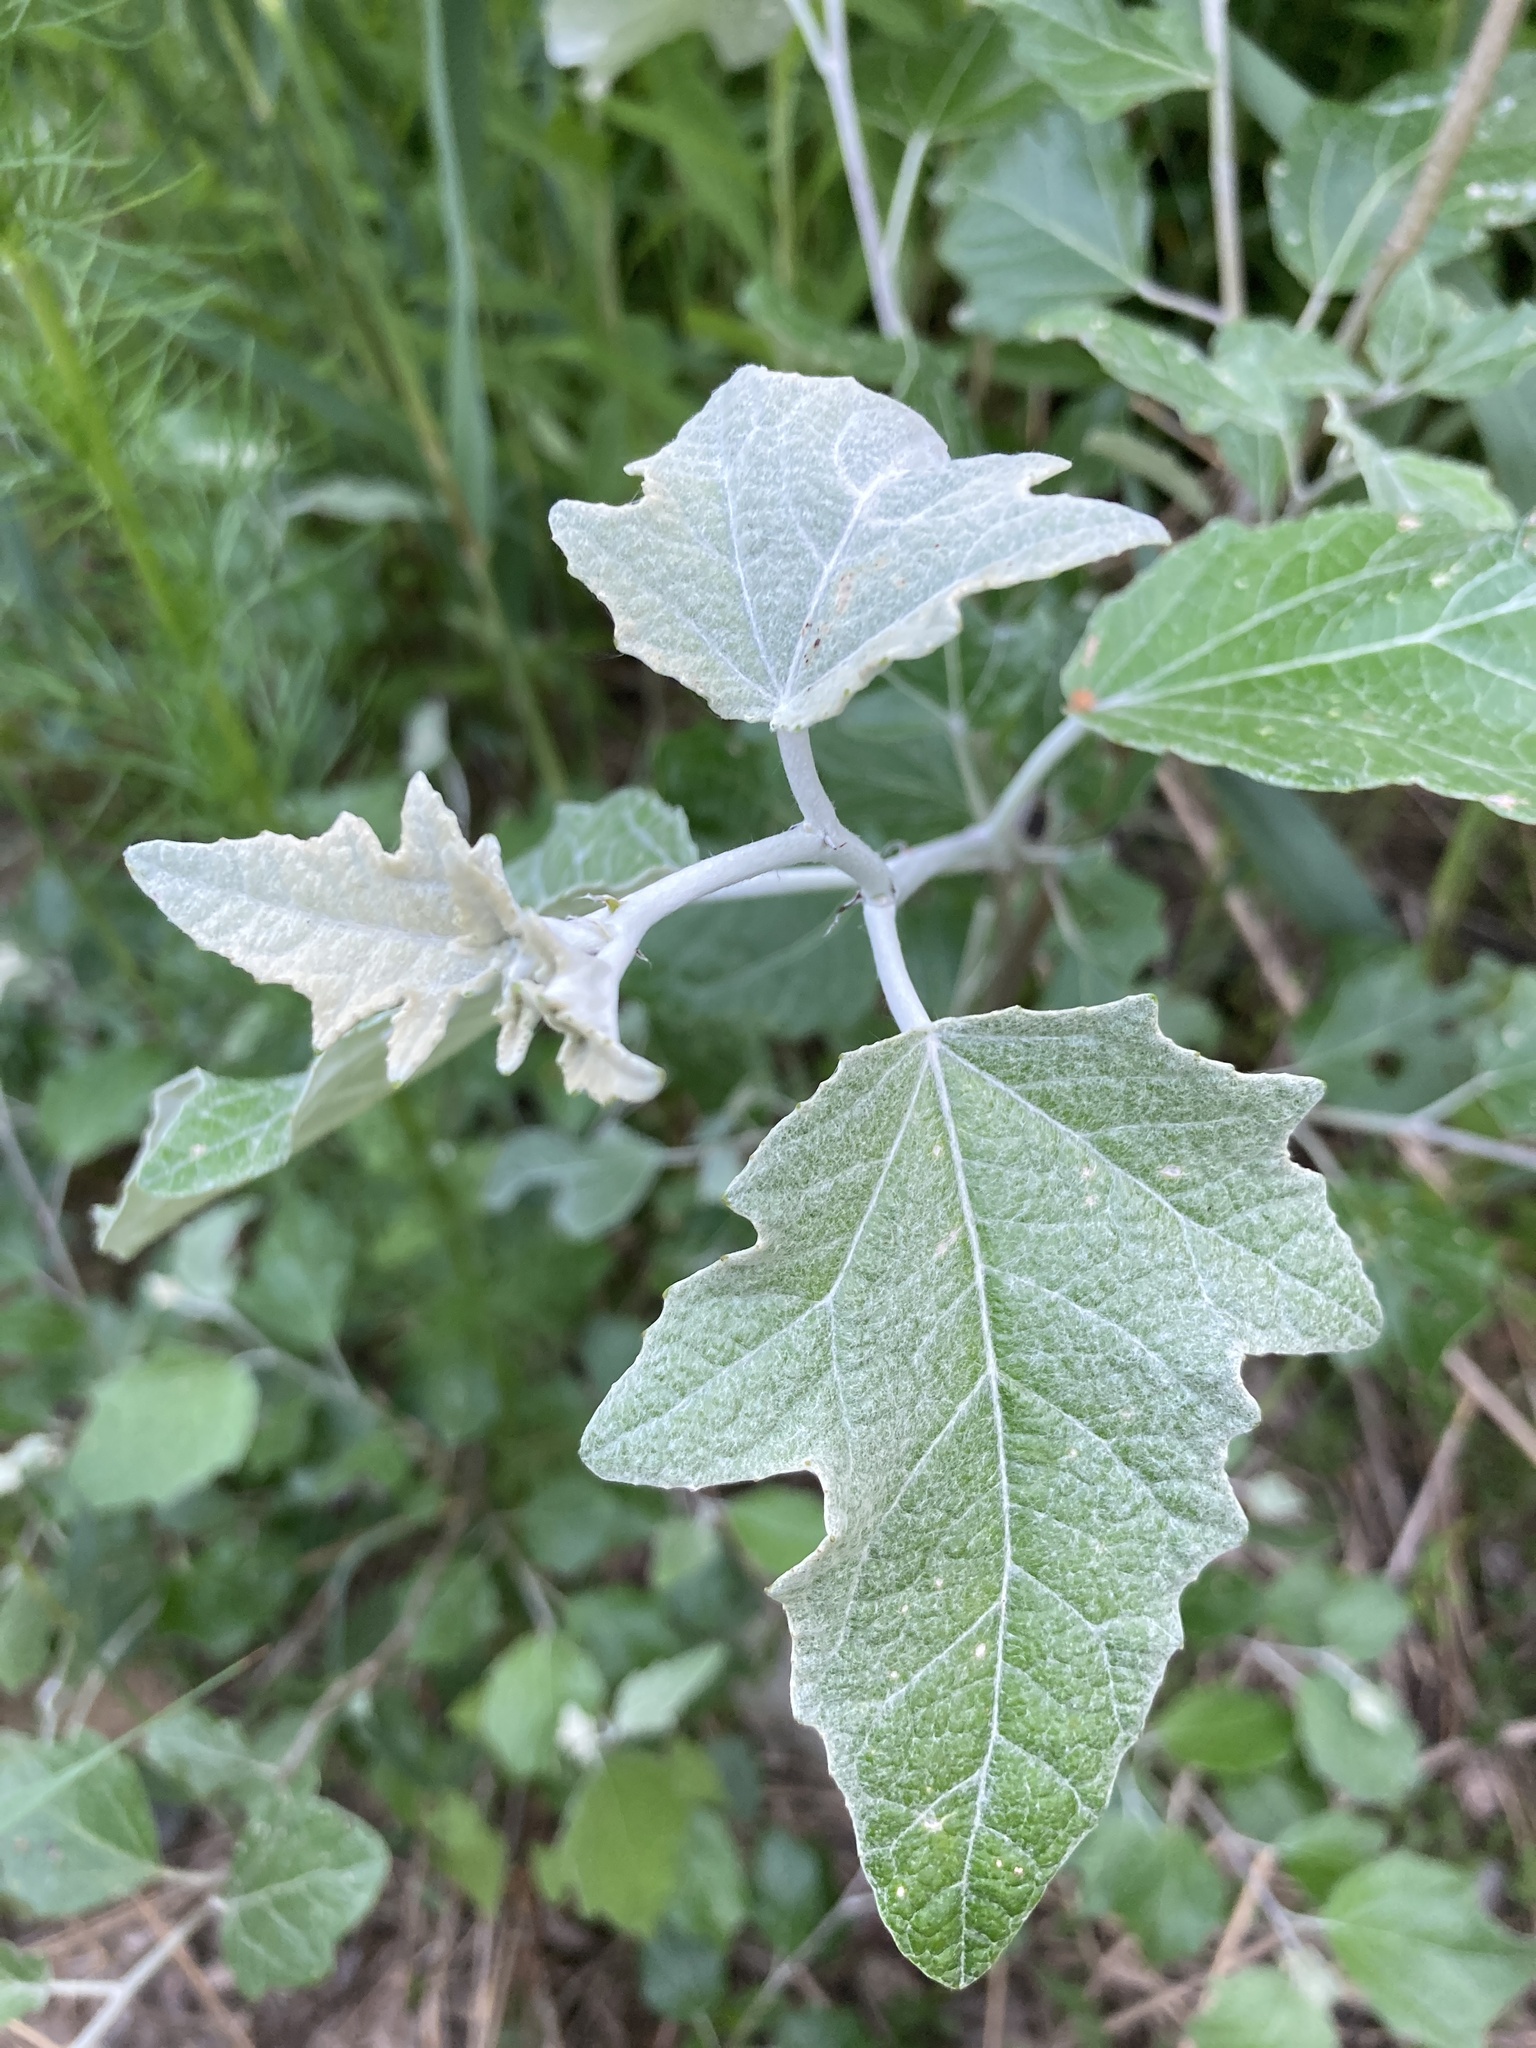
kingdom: Plantae
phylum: Tracheophyta
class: Magnoliopsida
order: Malpighiales
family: Salicaceae
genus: Populus
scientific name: Populus alba
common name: White poplar
